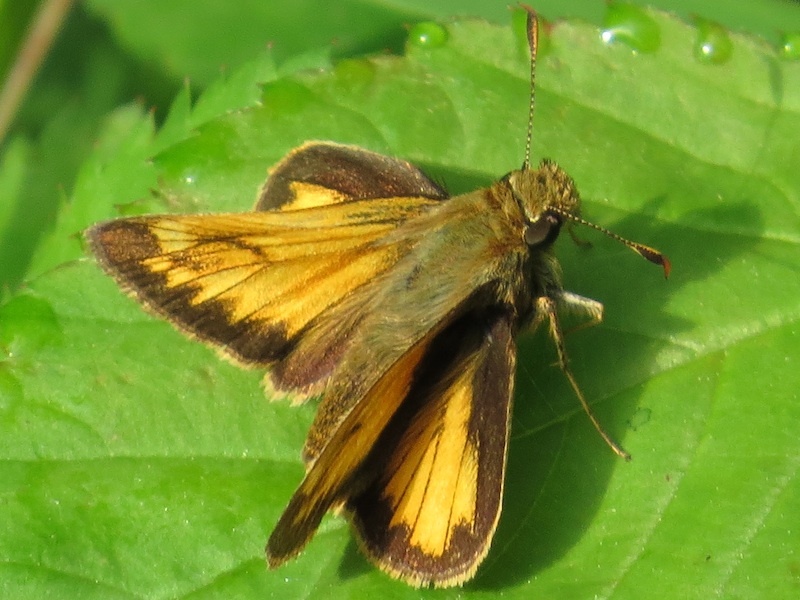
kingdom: Animalia
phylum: Arthropoda
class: Insecta
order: Lepidoptera
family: Hesperiidae
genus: Lon
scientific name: Lon hobomok
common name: Hobomok skipper
